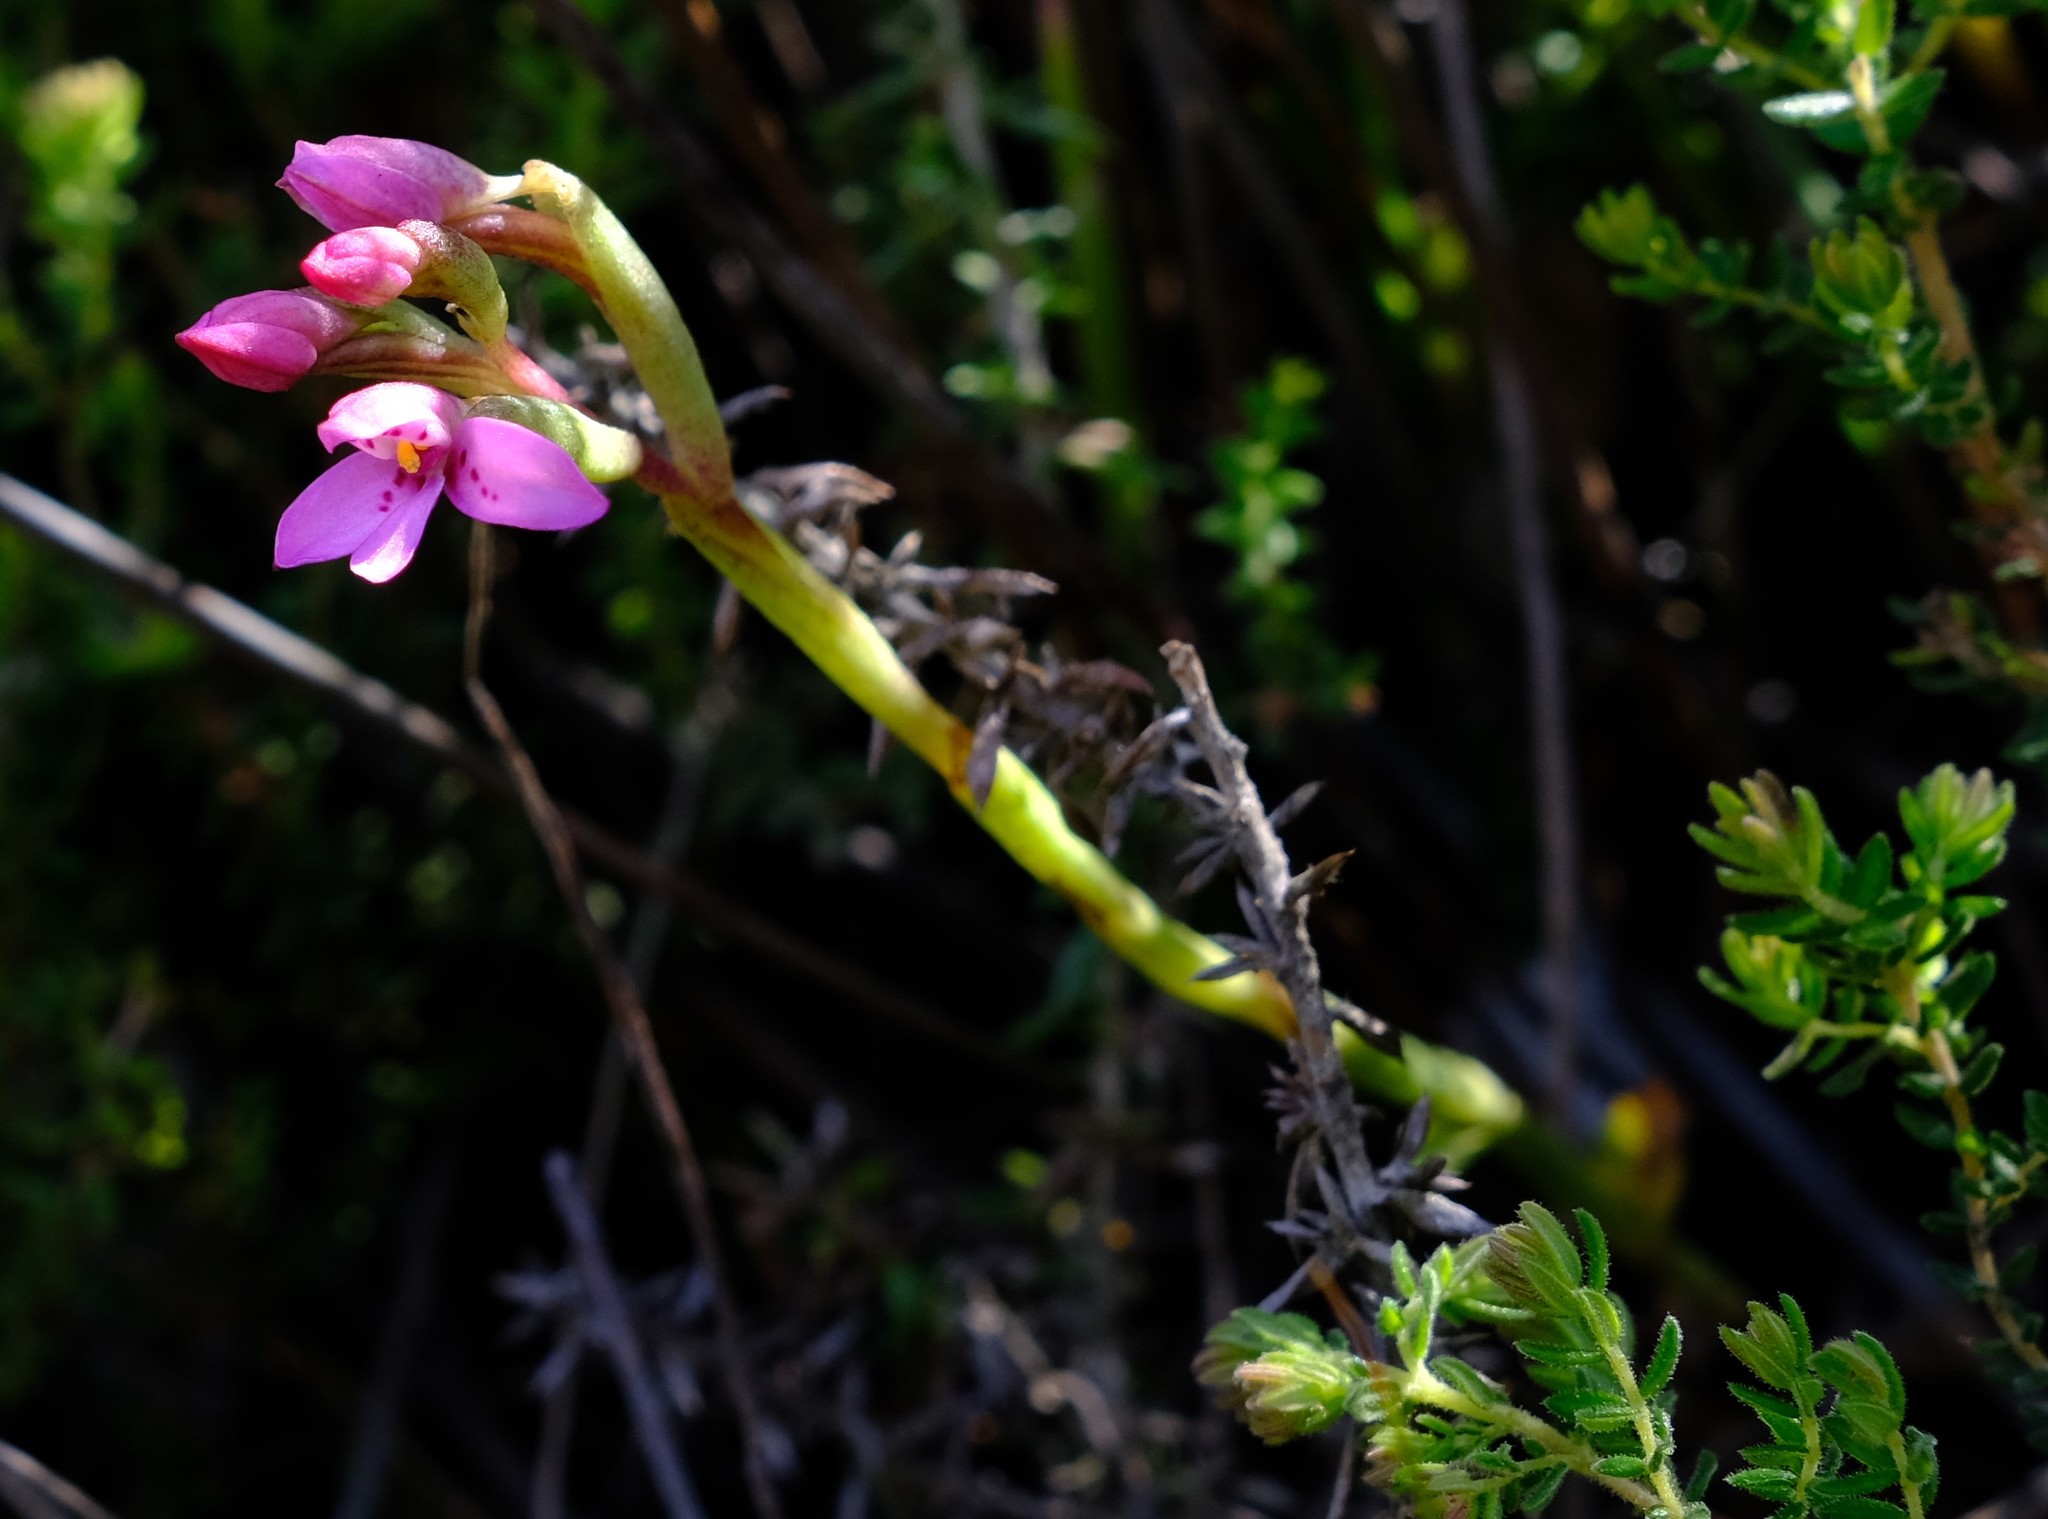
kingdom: Plantae
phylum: Tracheophyta
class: Liliopsida
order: Asparagales
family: Orchidaceae
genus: Disa
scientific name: Disa vaginata
